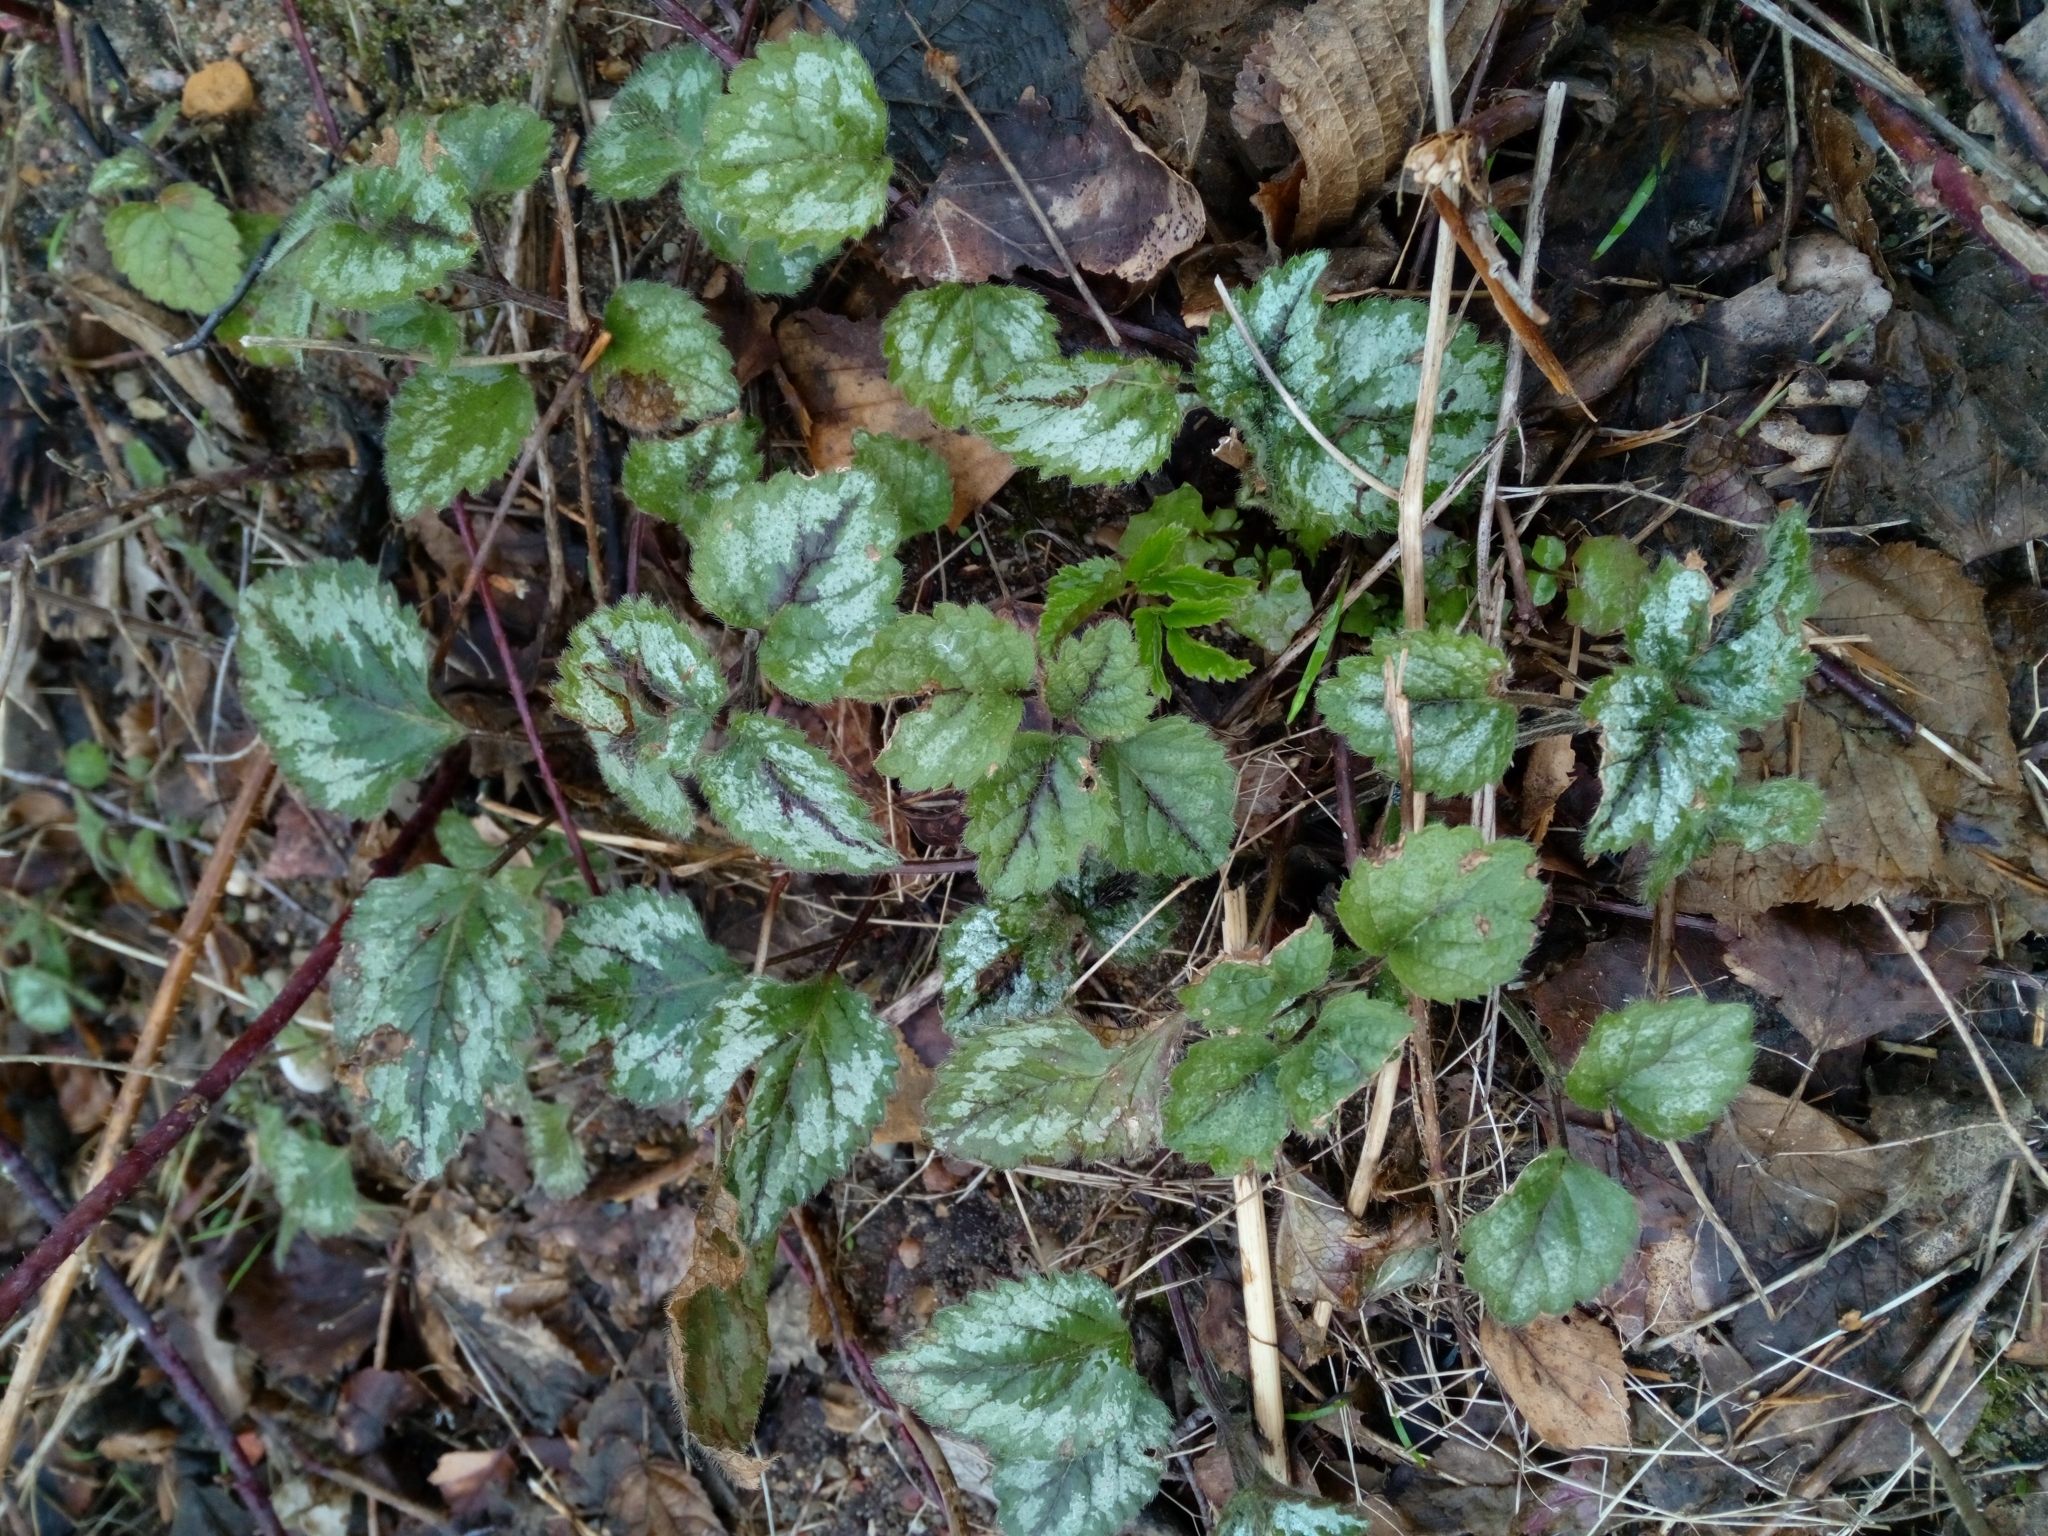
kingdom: Plantae
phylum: Tracheophyta
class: Magnoliopsida
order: Lamiales
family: Lamiaceae
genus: Lamium
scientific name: Lamium galeobdolon
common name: Yellow archangel
